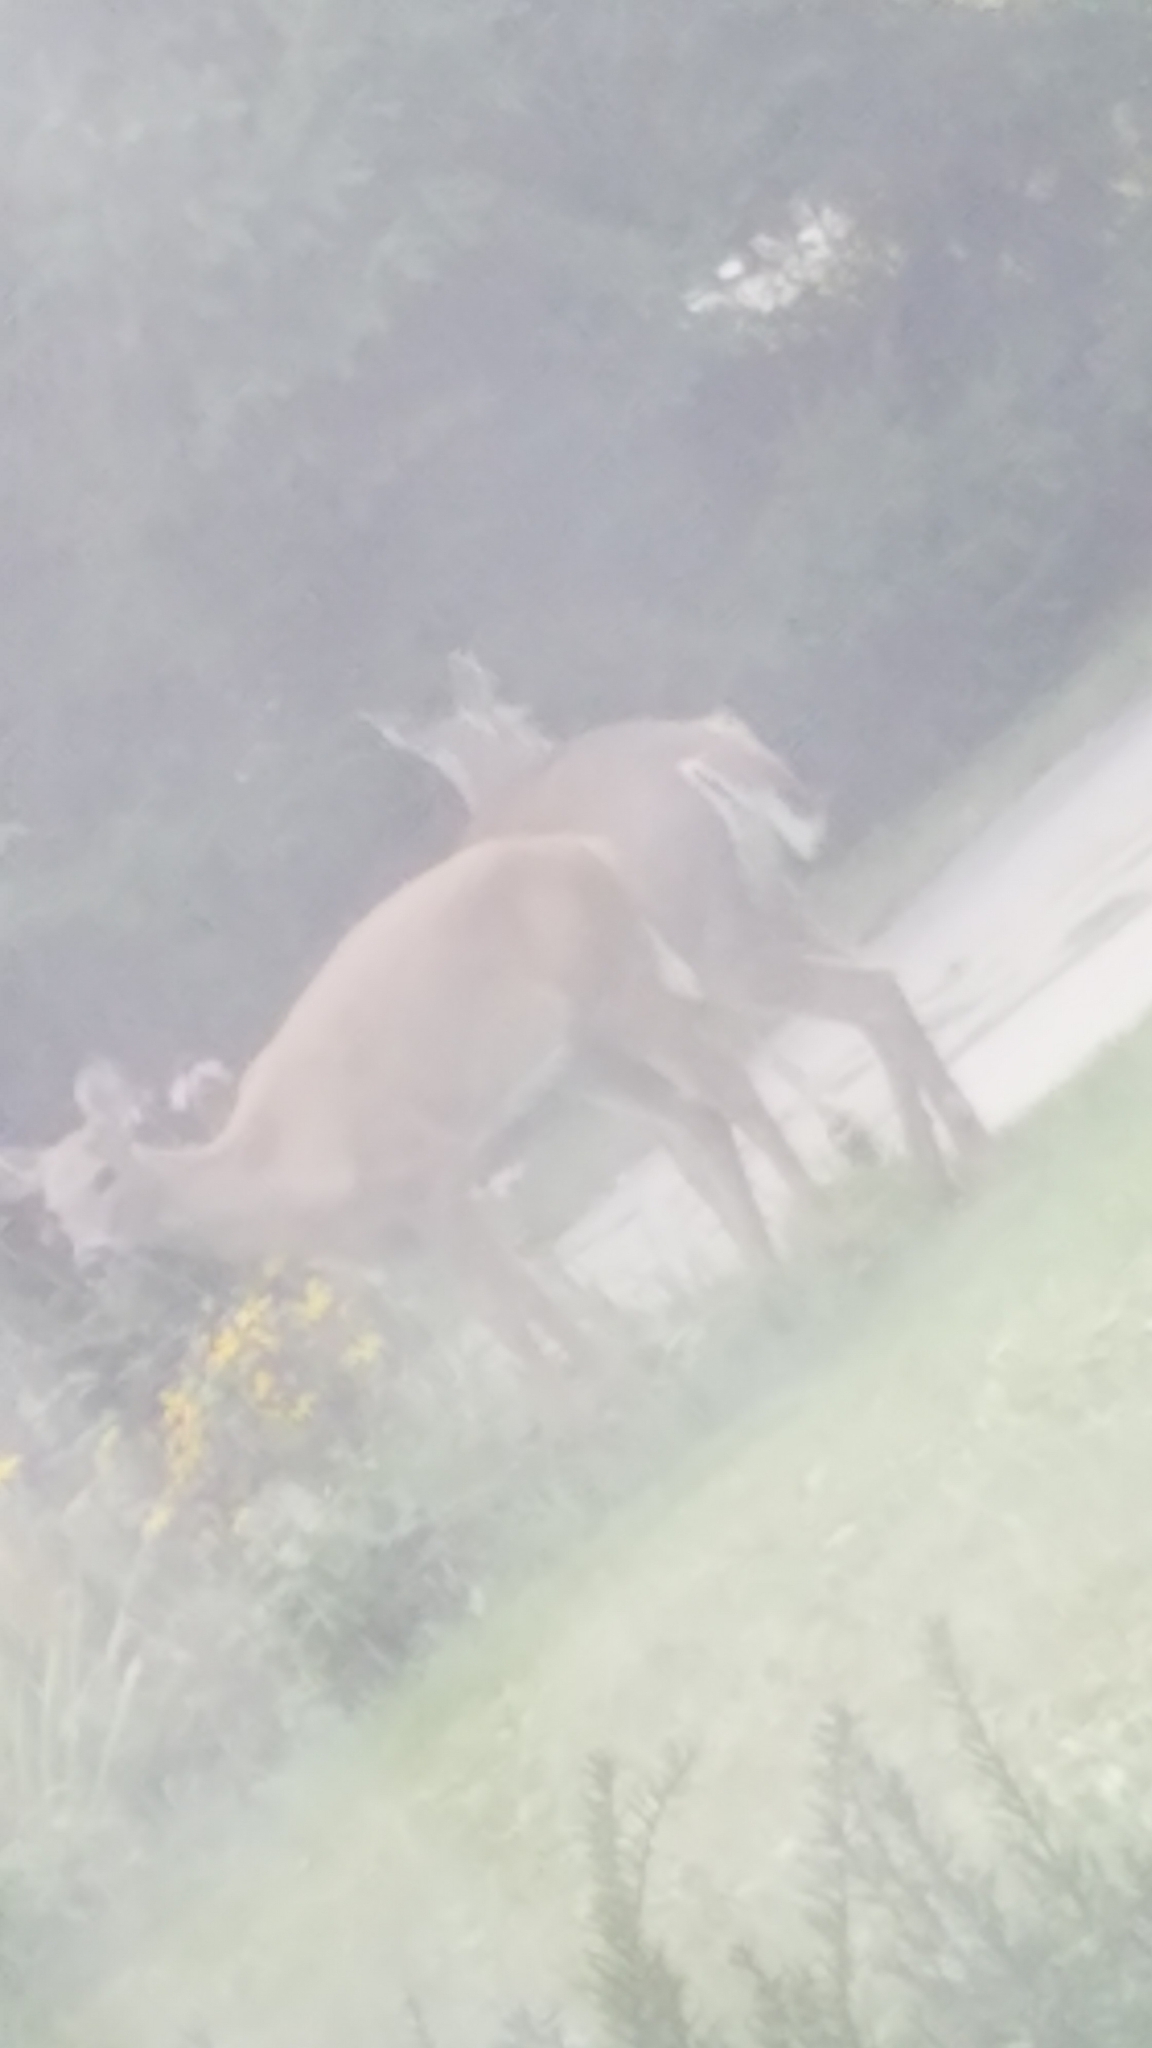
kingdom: Animalia
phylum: Chordata
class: Mammalia
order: Artiodactyla
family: Cervidae
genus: Odocoileus
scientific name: Odocoileus virginianus
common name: White-tailed deer
